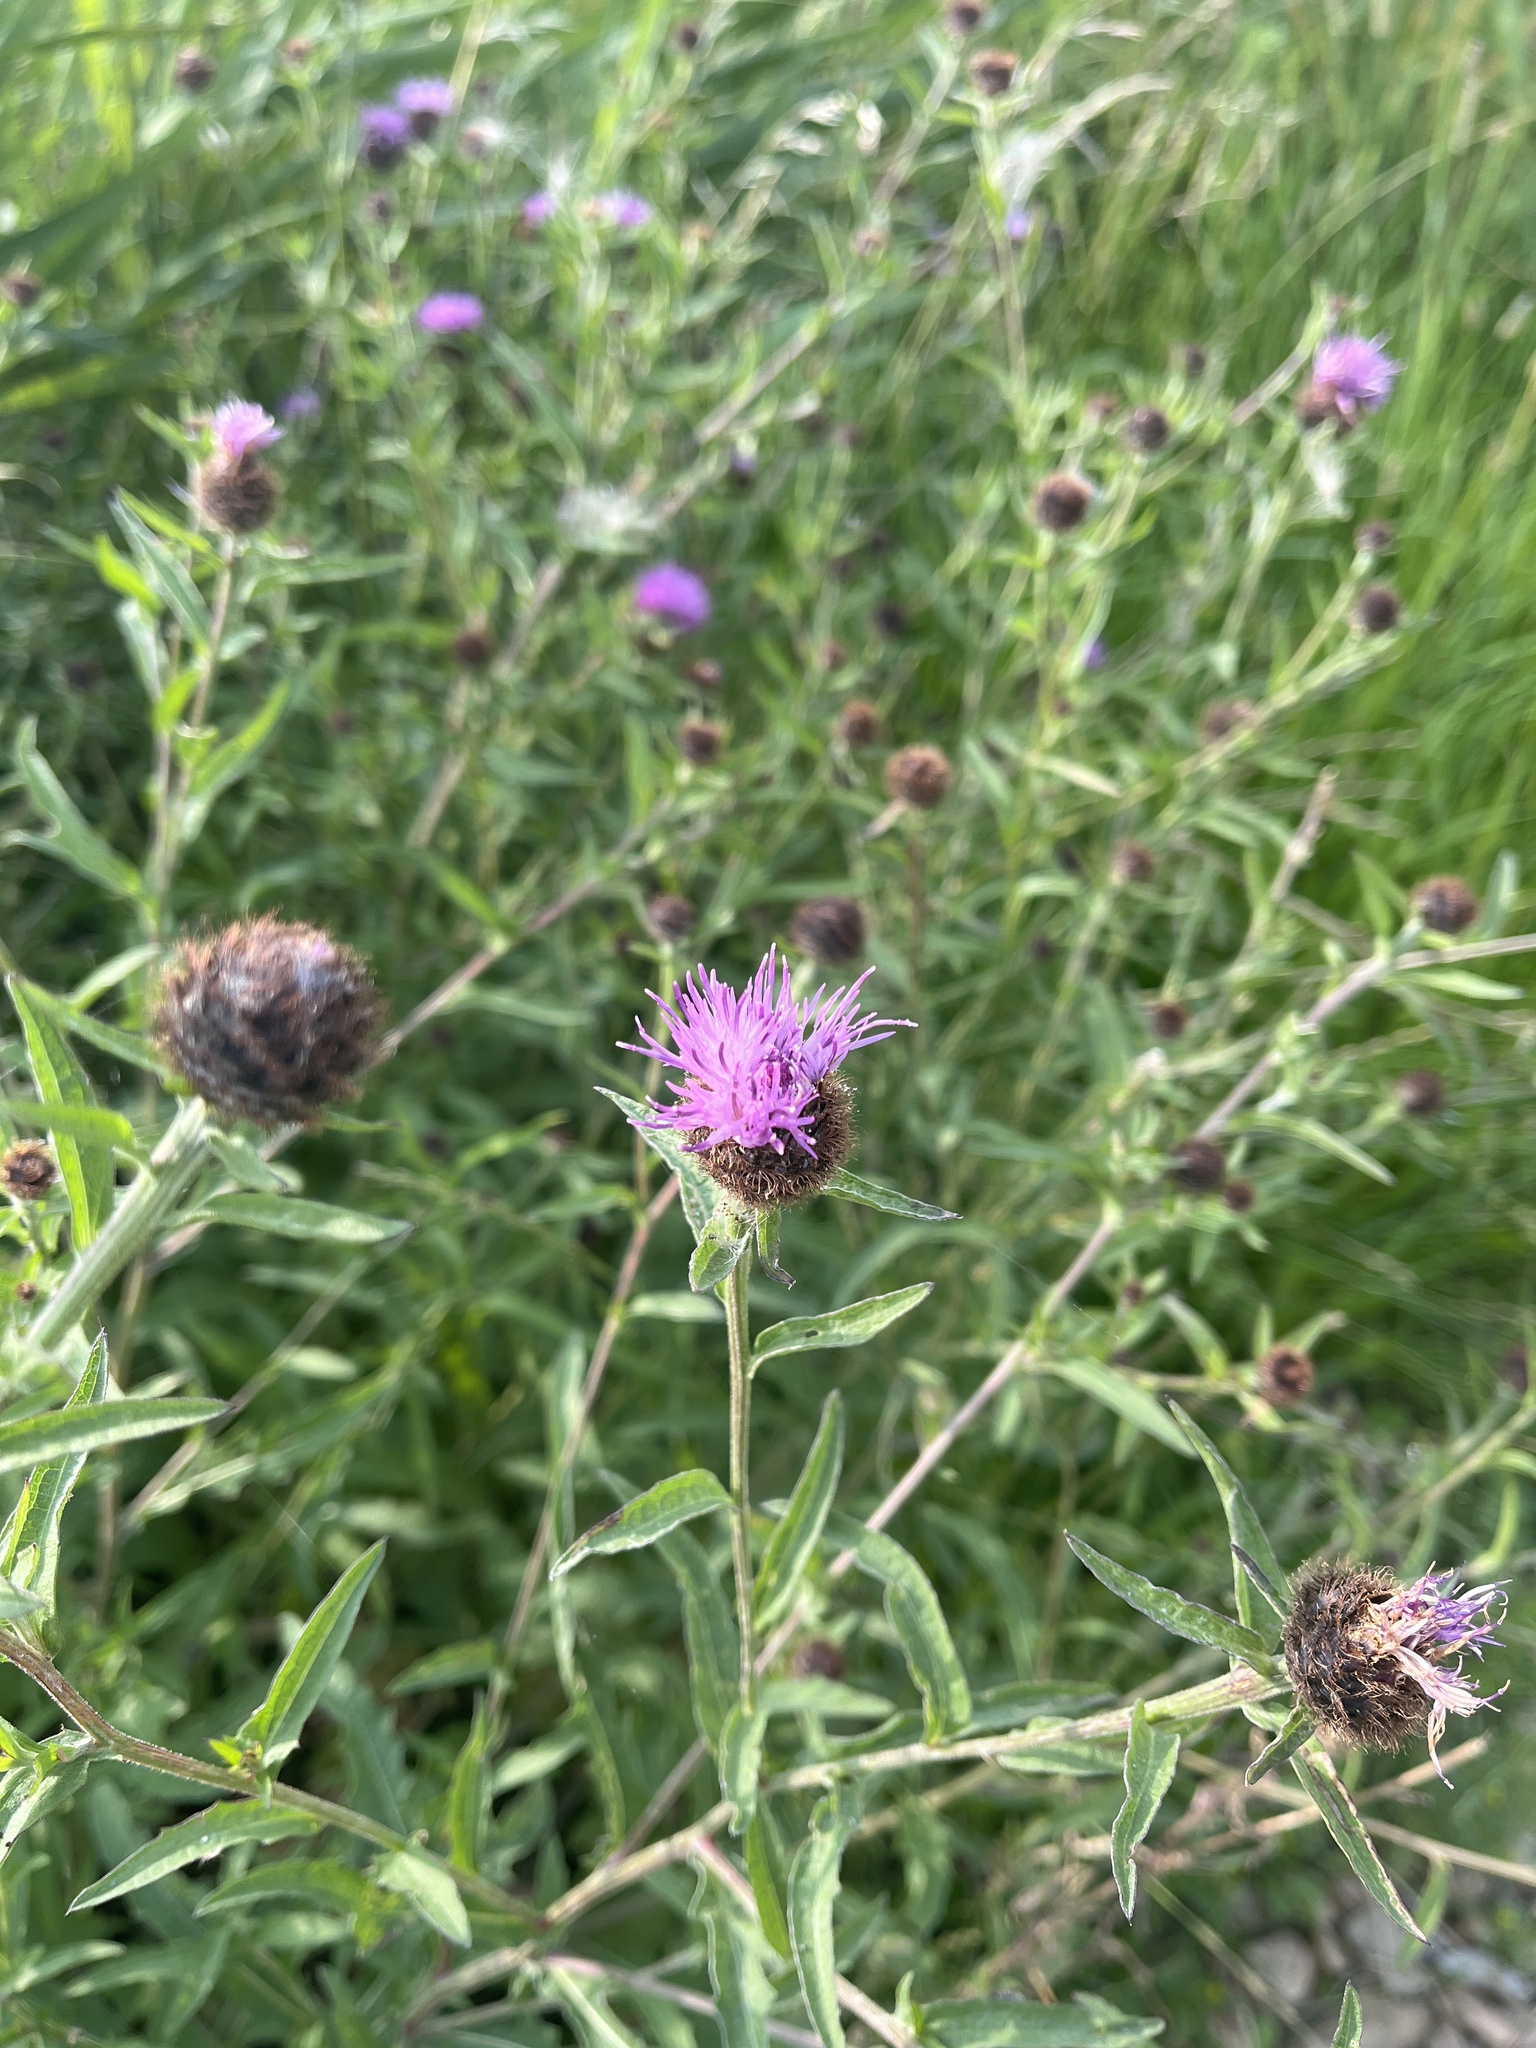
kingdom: Plantae
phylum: Tracheophyta
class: Magnoliopsida
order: Asterales
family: Asteraceae
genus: Centaurea
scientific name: Centaurea nigra
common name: Lesser knapweed
